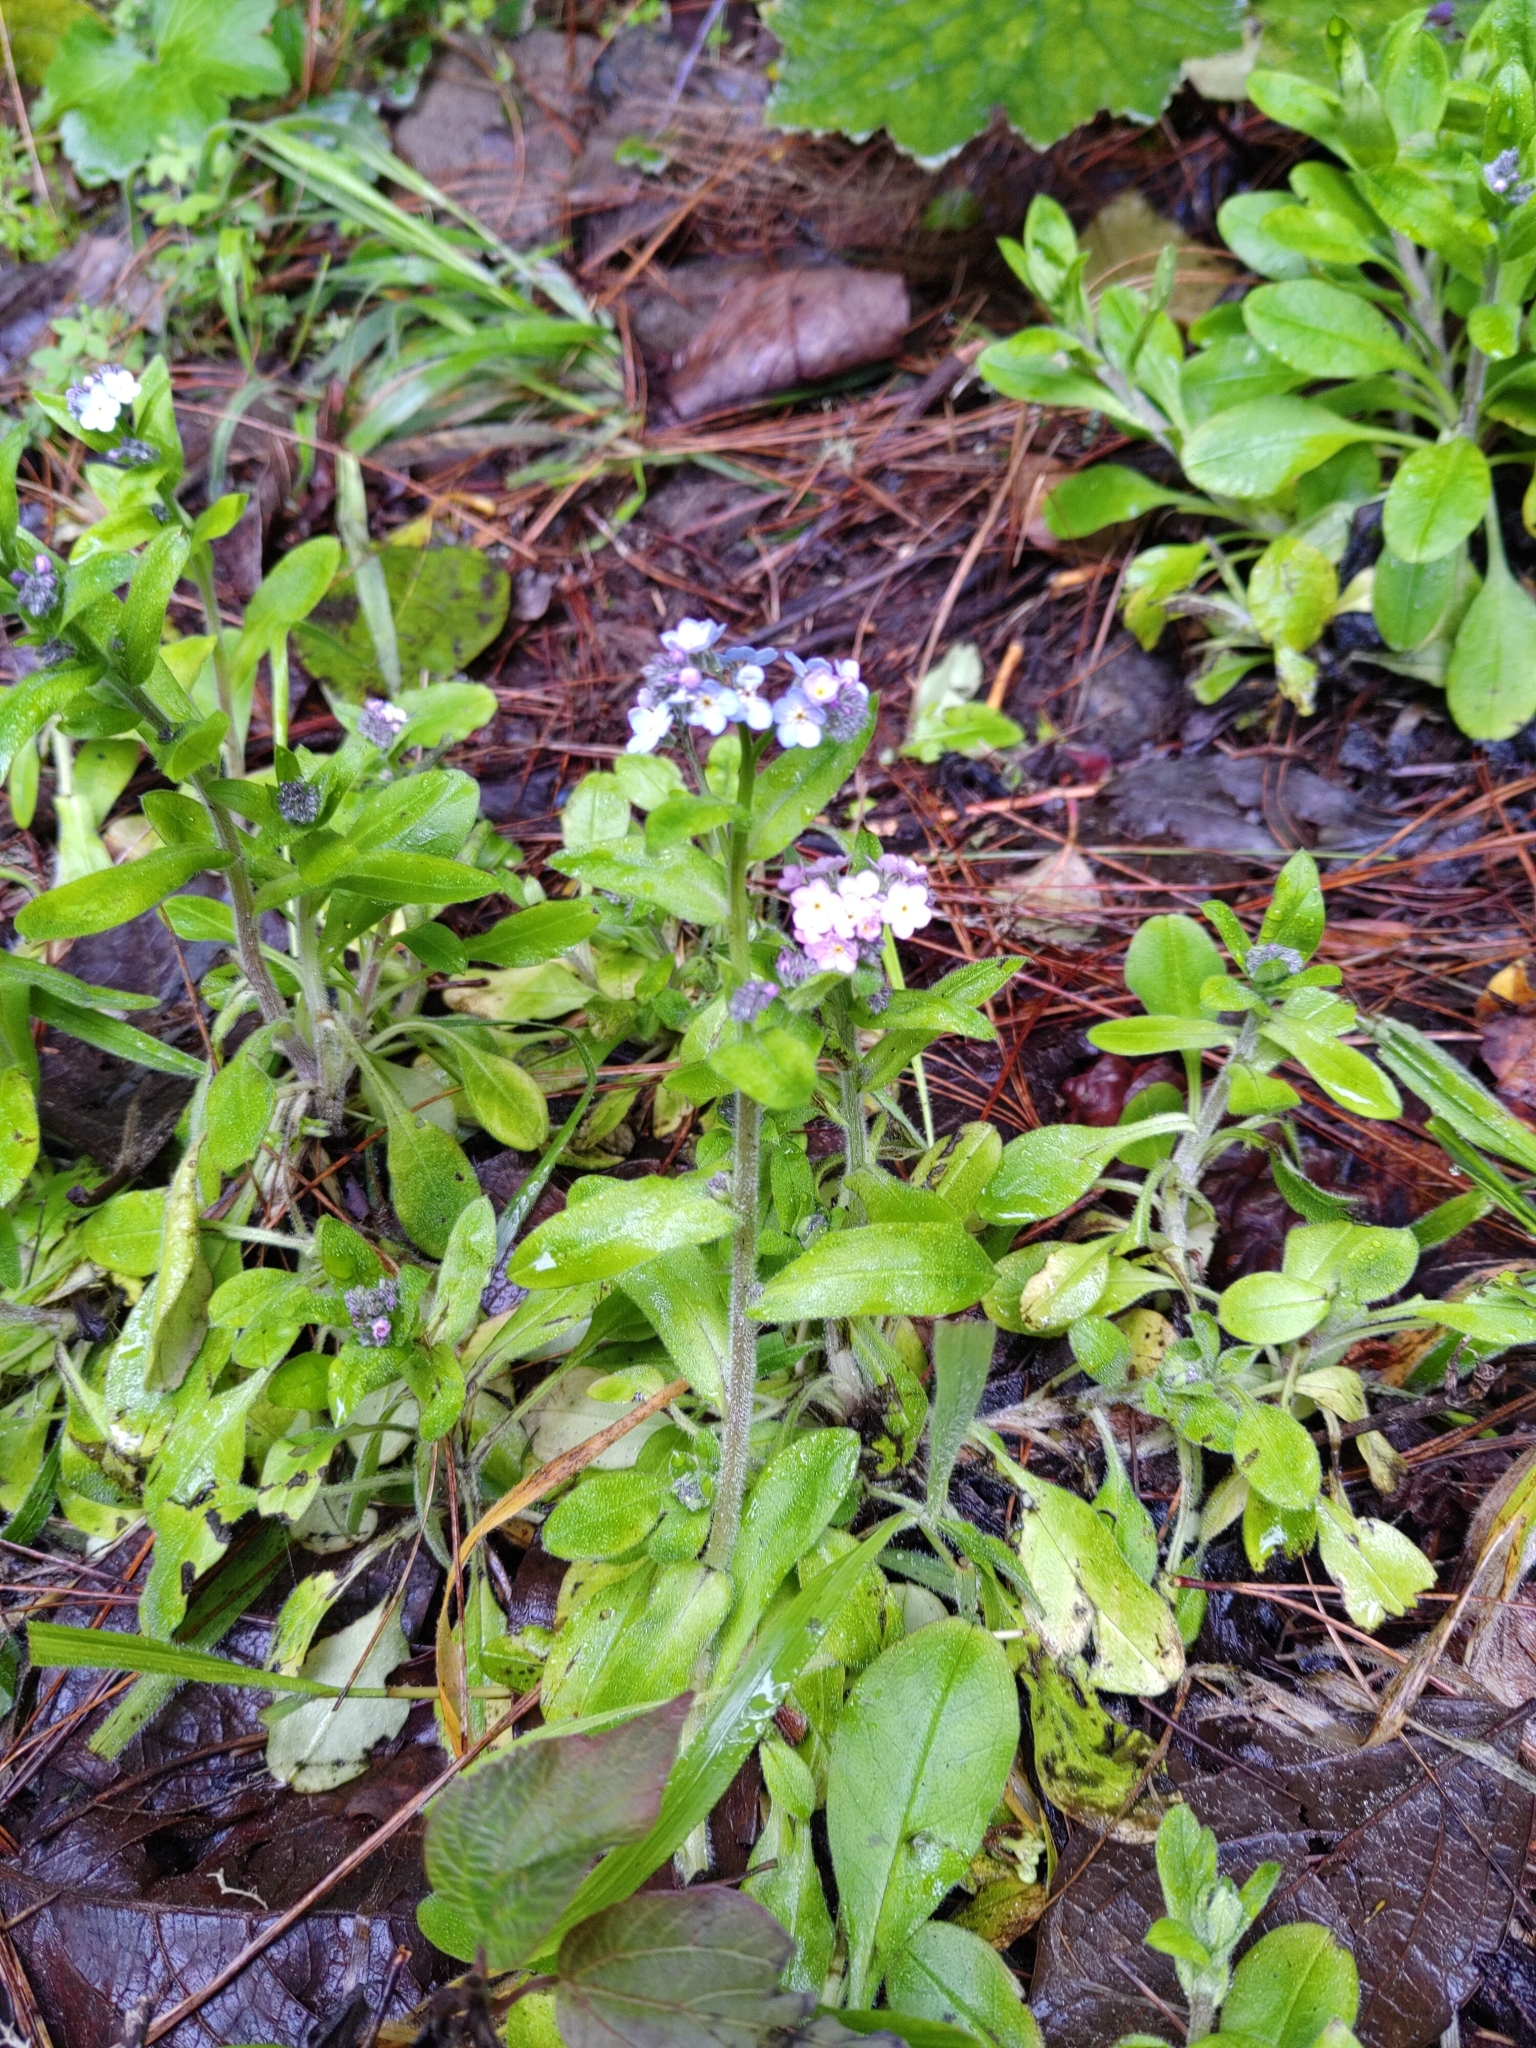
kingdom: Plantae
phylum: Tracheophyta
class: Magnoliopsida
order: Boraginales
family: Boraginaceae
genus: Myosotis
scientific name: Myosotis latifolia
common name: Broadleaf forget-me-not
